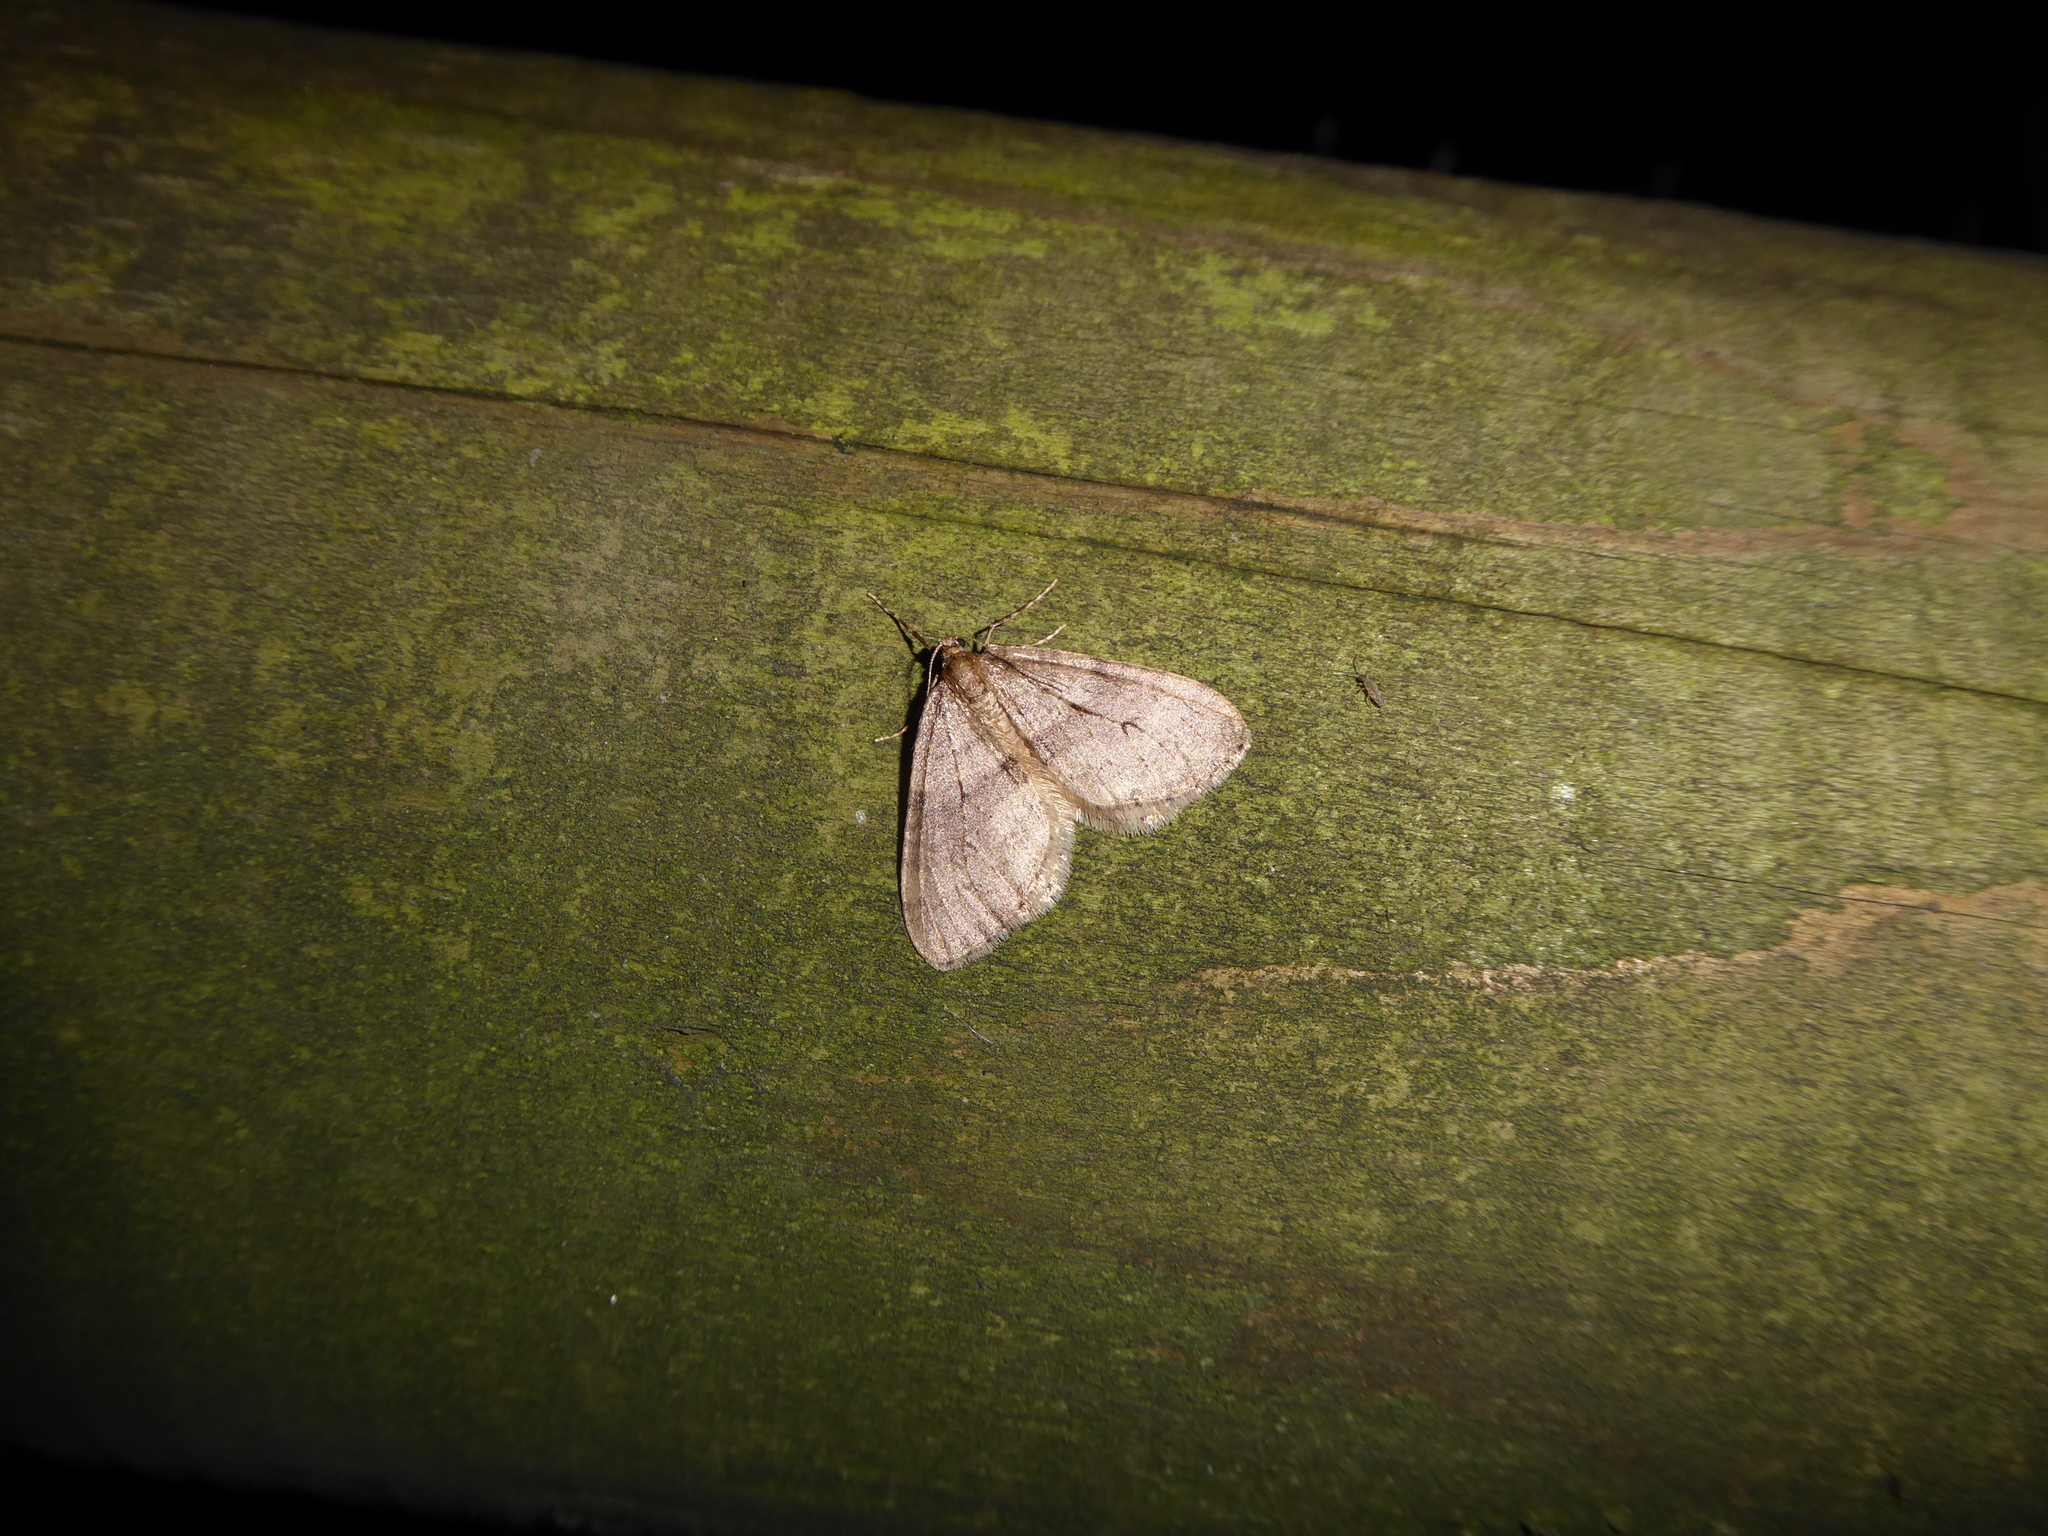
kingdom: Animalia
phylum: Arthropoda
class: Insecta
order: Lepidoptera
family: Geometridae
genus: Operophtera
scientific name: Operophtera brumata
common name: Winter moth
